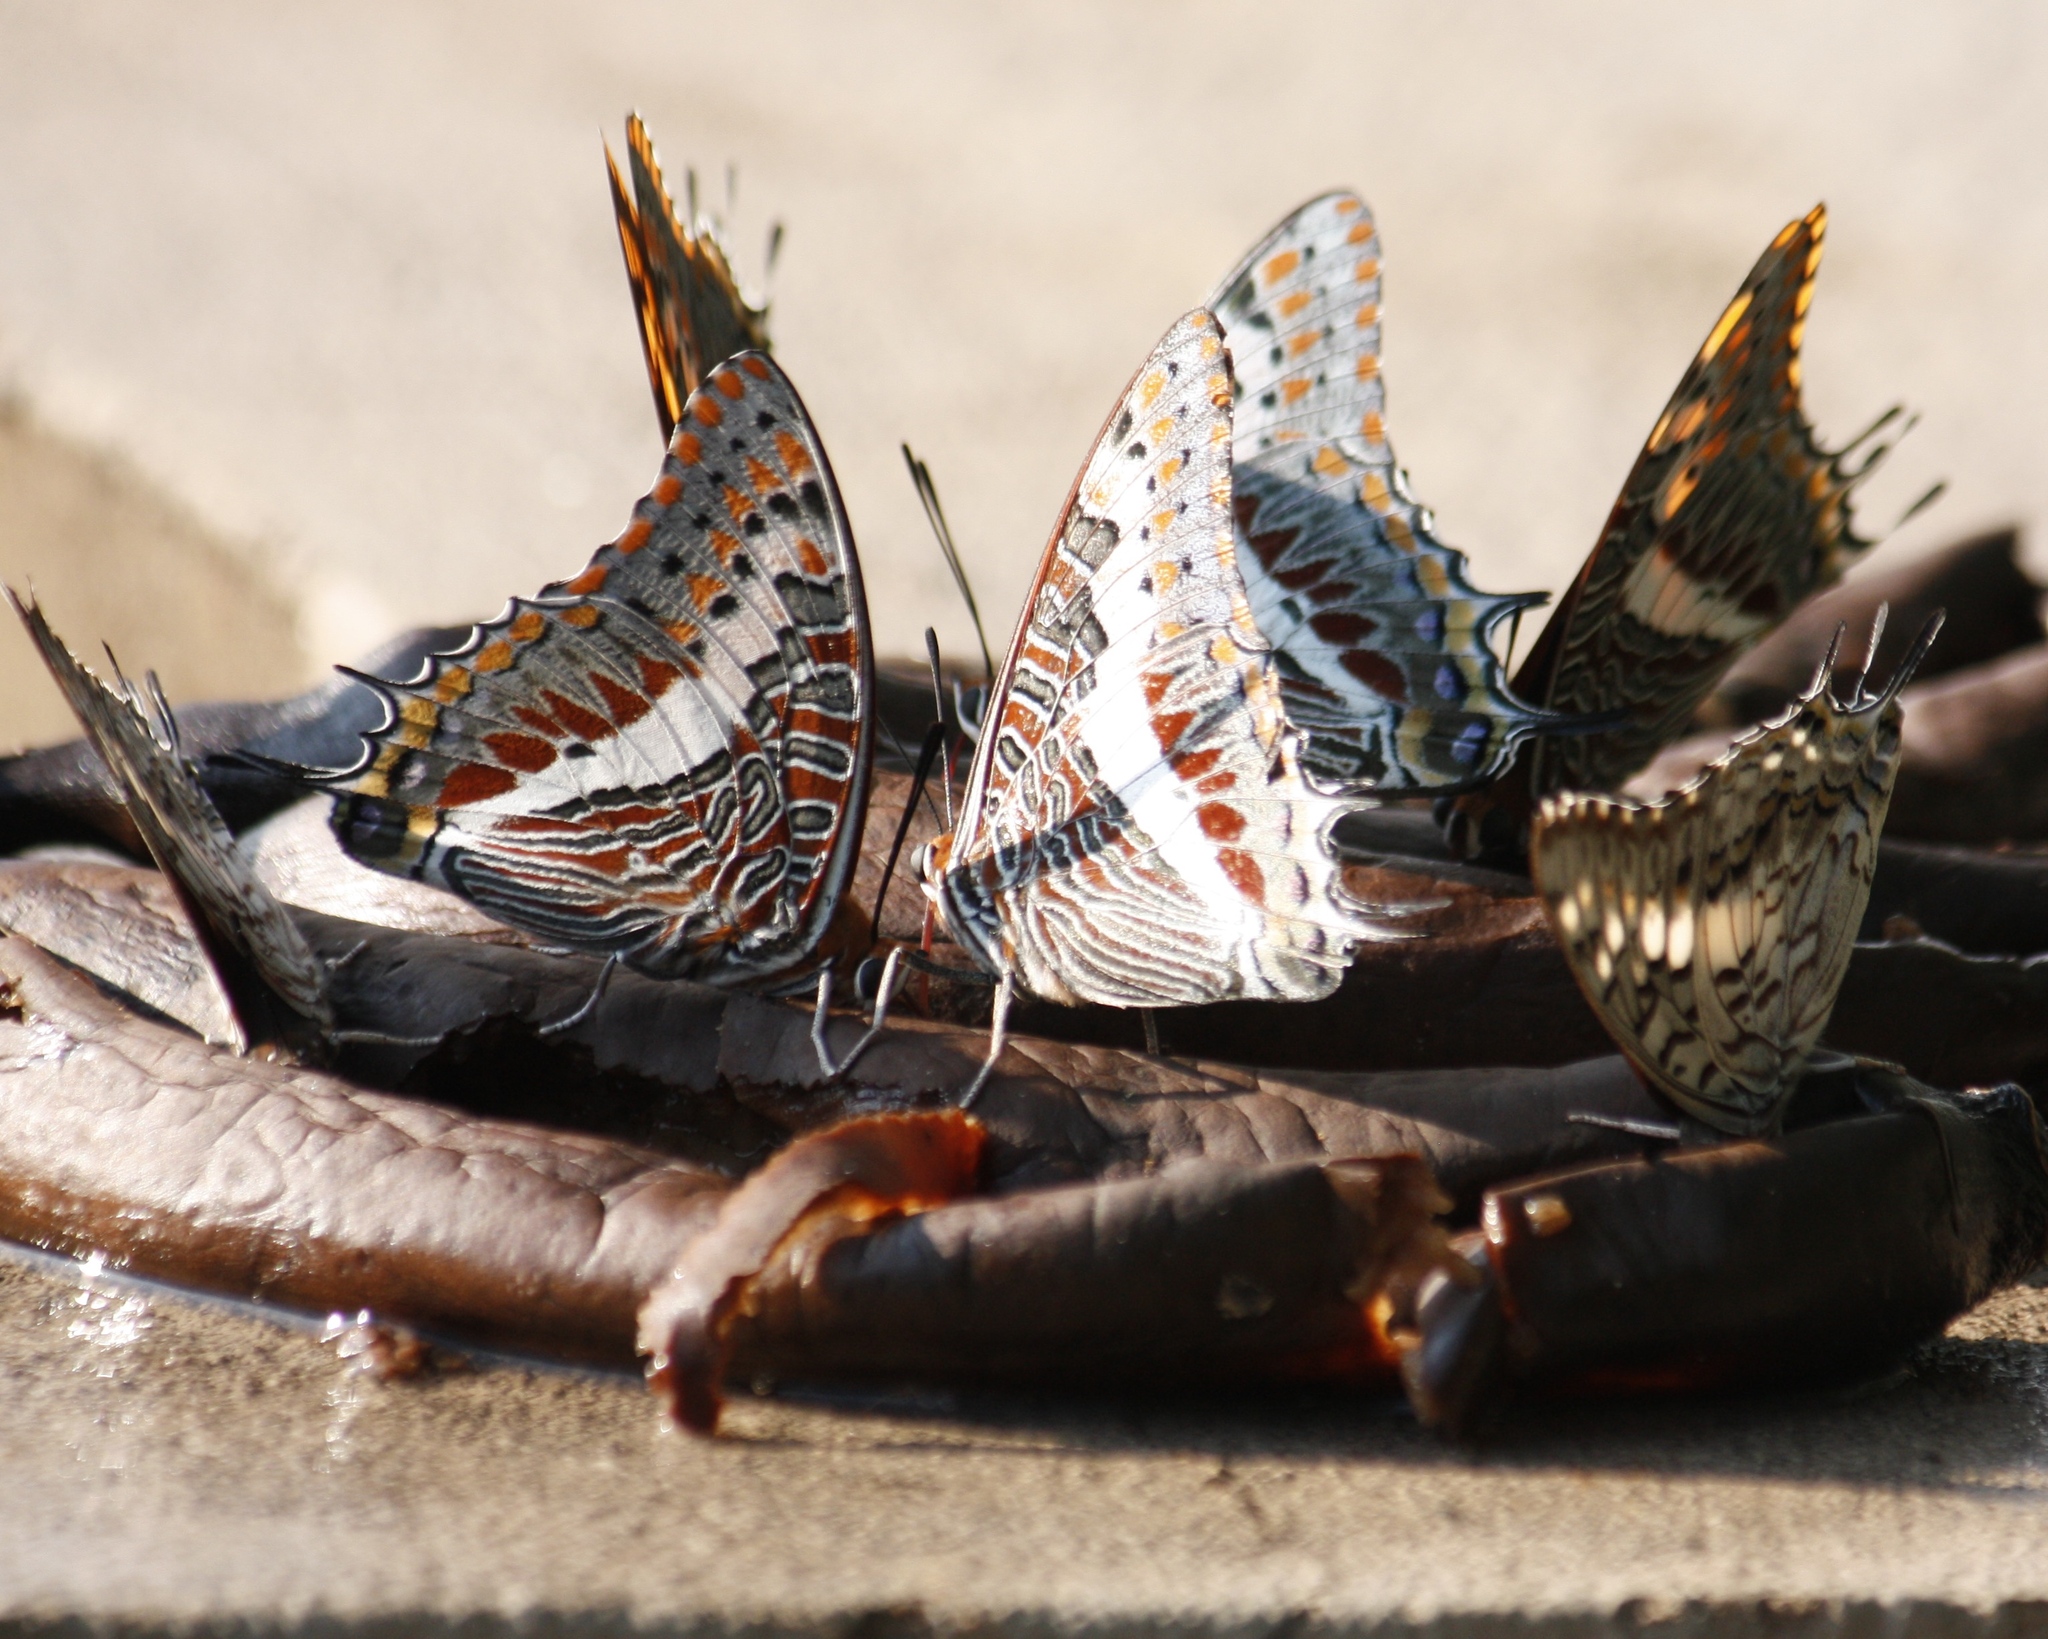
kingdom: Animalia
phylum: Arthropoda
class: Insecta
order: Lepidoptera
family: Nymphalidae
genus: Charaxes
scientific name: Charaxes jasius
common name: Two tailed pasha
